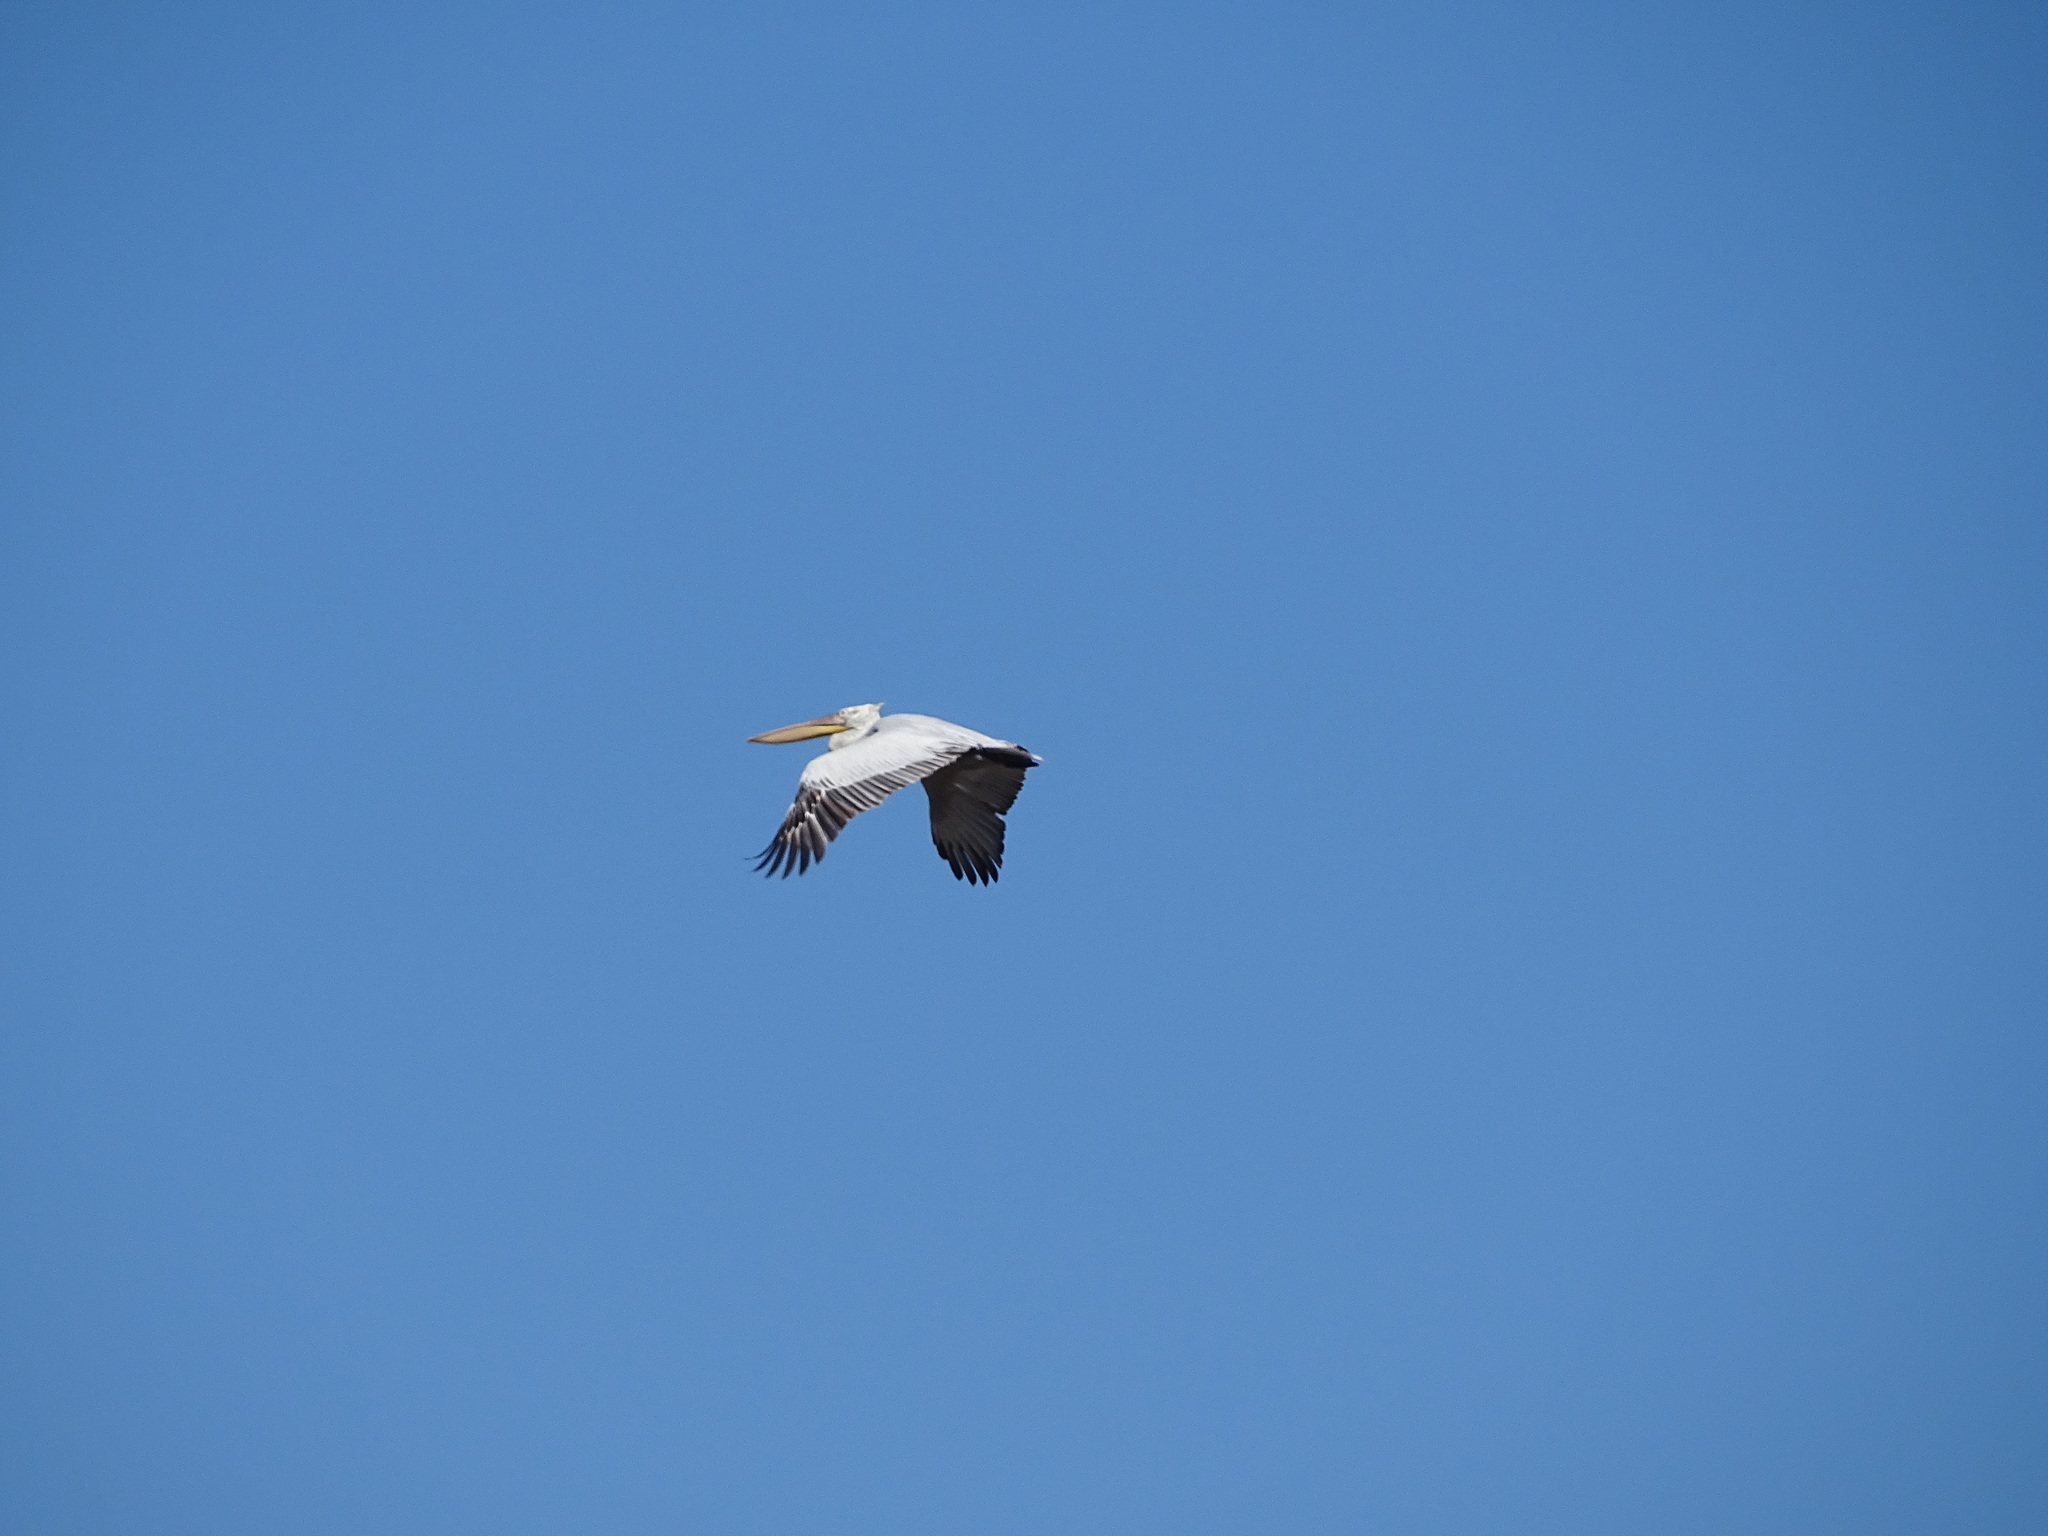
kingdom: Animalia
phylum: Chordata
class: Aves
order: Pelecaniformes
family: Pelecanidae
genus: Pelecanus
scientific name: Pelecanus onocrotalus
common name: Great white pelican
